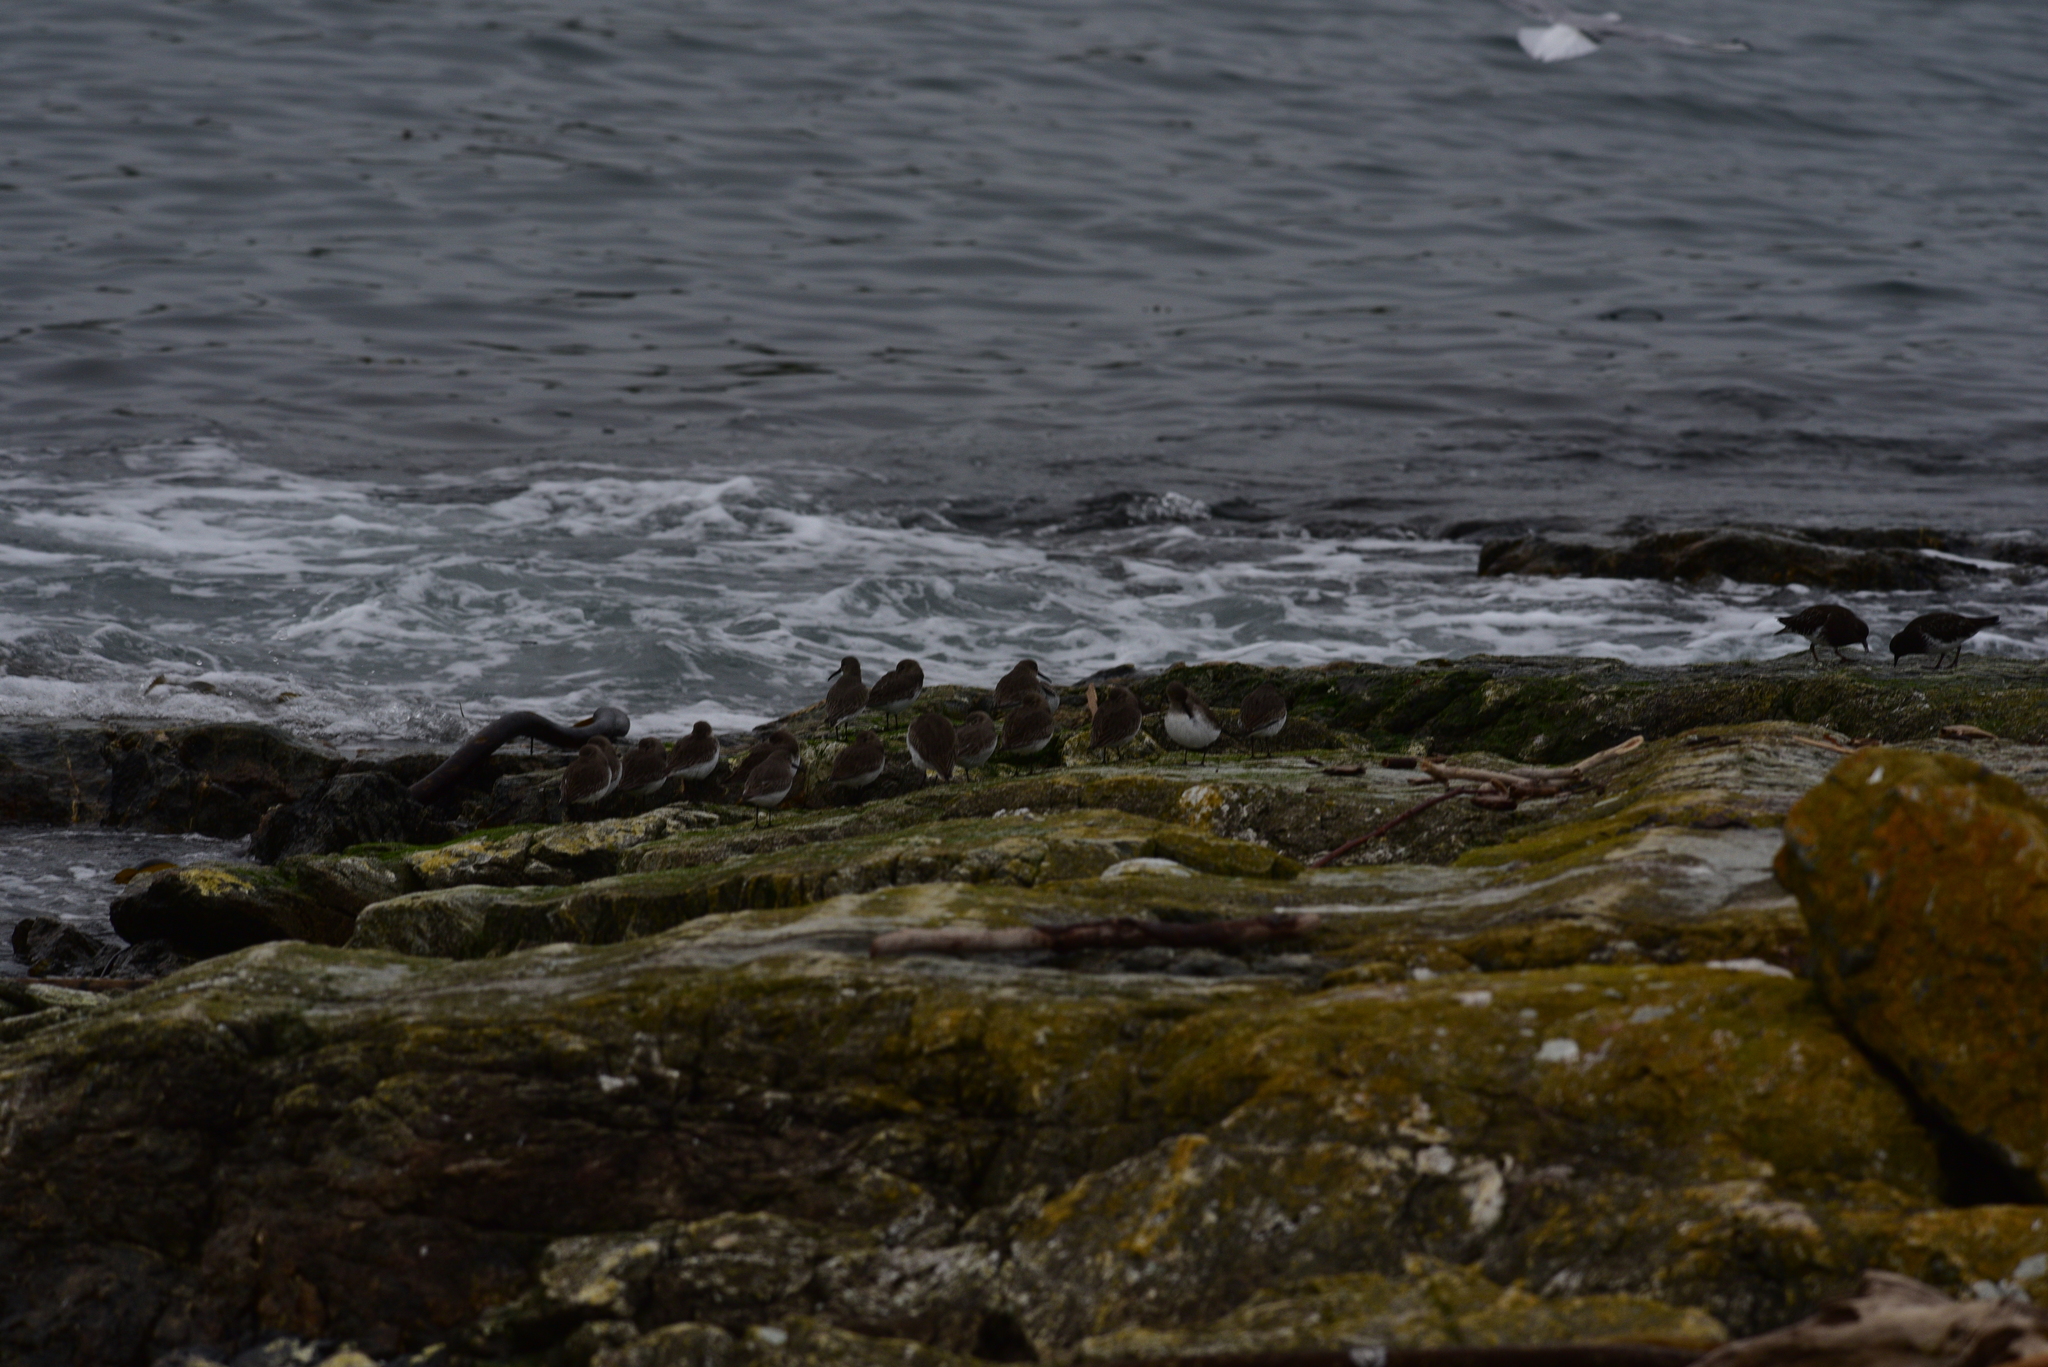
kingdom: Animalia
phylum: Chordata
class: Aves
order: Charadriiformes
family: Scolopacidae
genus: Calidris
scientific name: Calidris alpina
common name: Dunlin
